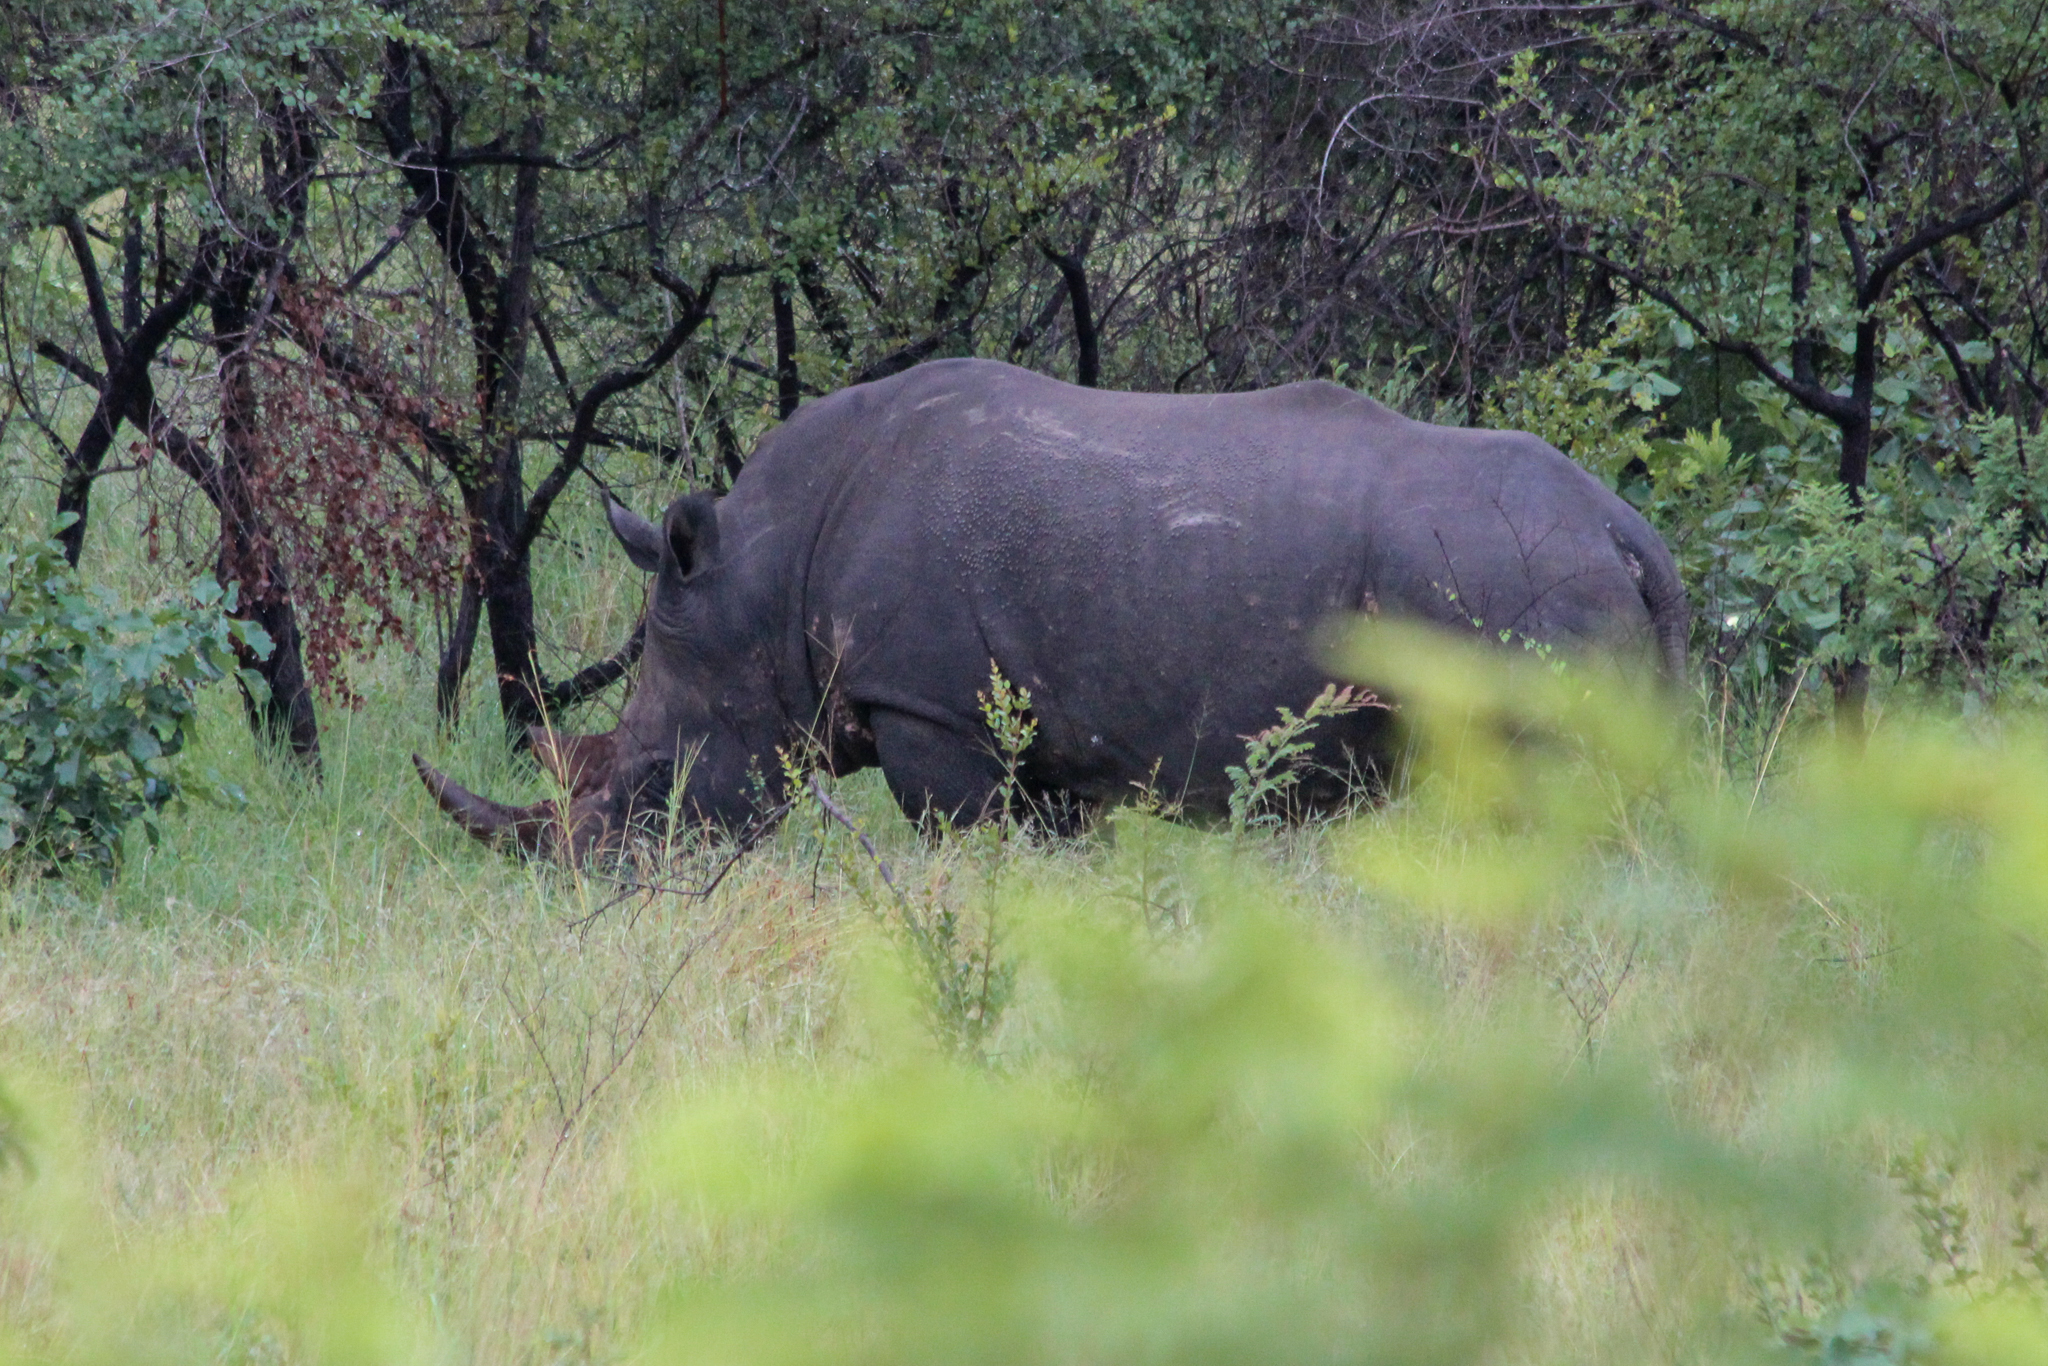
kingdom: Animalia
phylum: Chordata
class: Mammalia
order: Perissodactyla
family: Rhinocerotidae
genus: Ceratotherium
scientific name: Ceratotherium simum
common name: White rhinoceros
